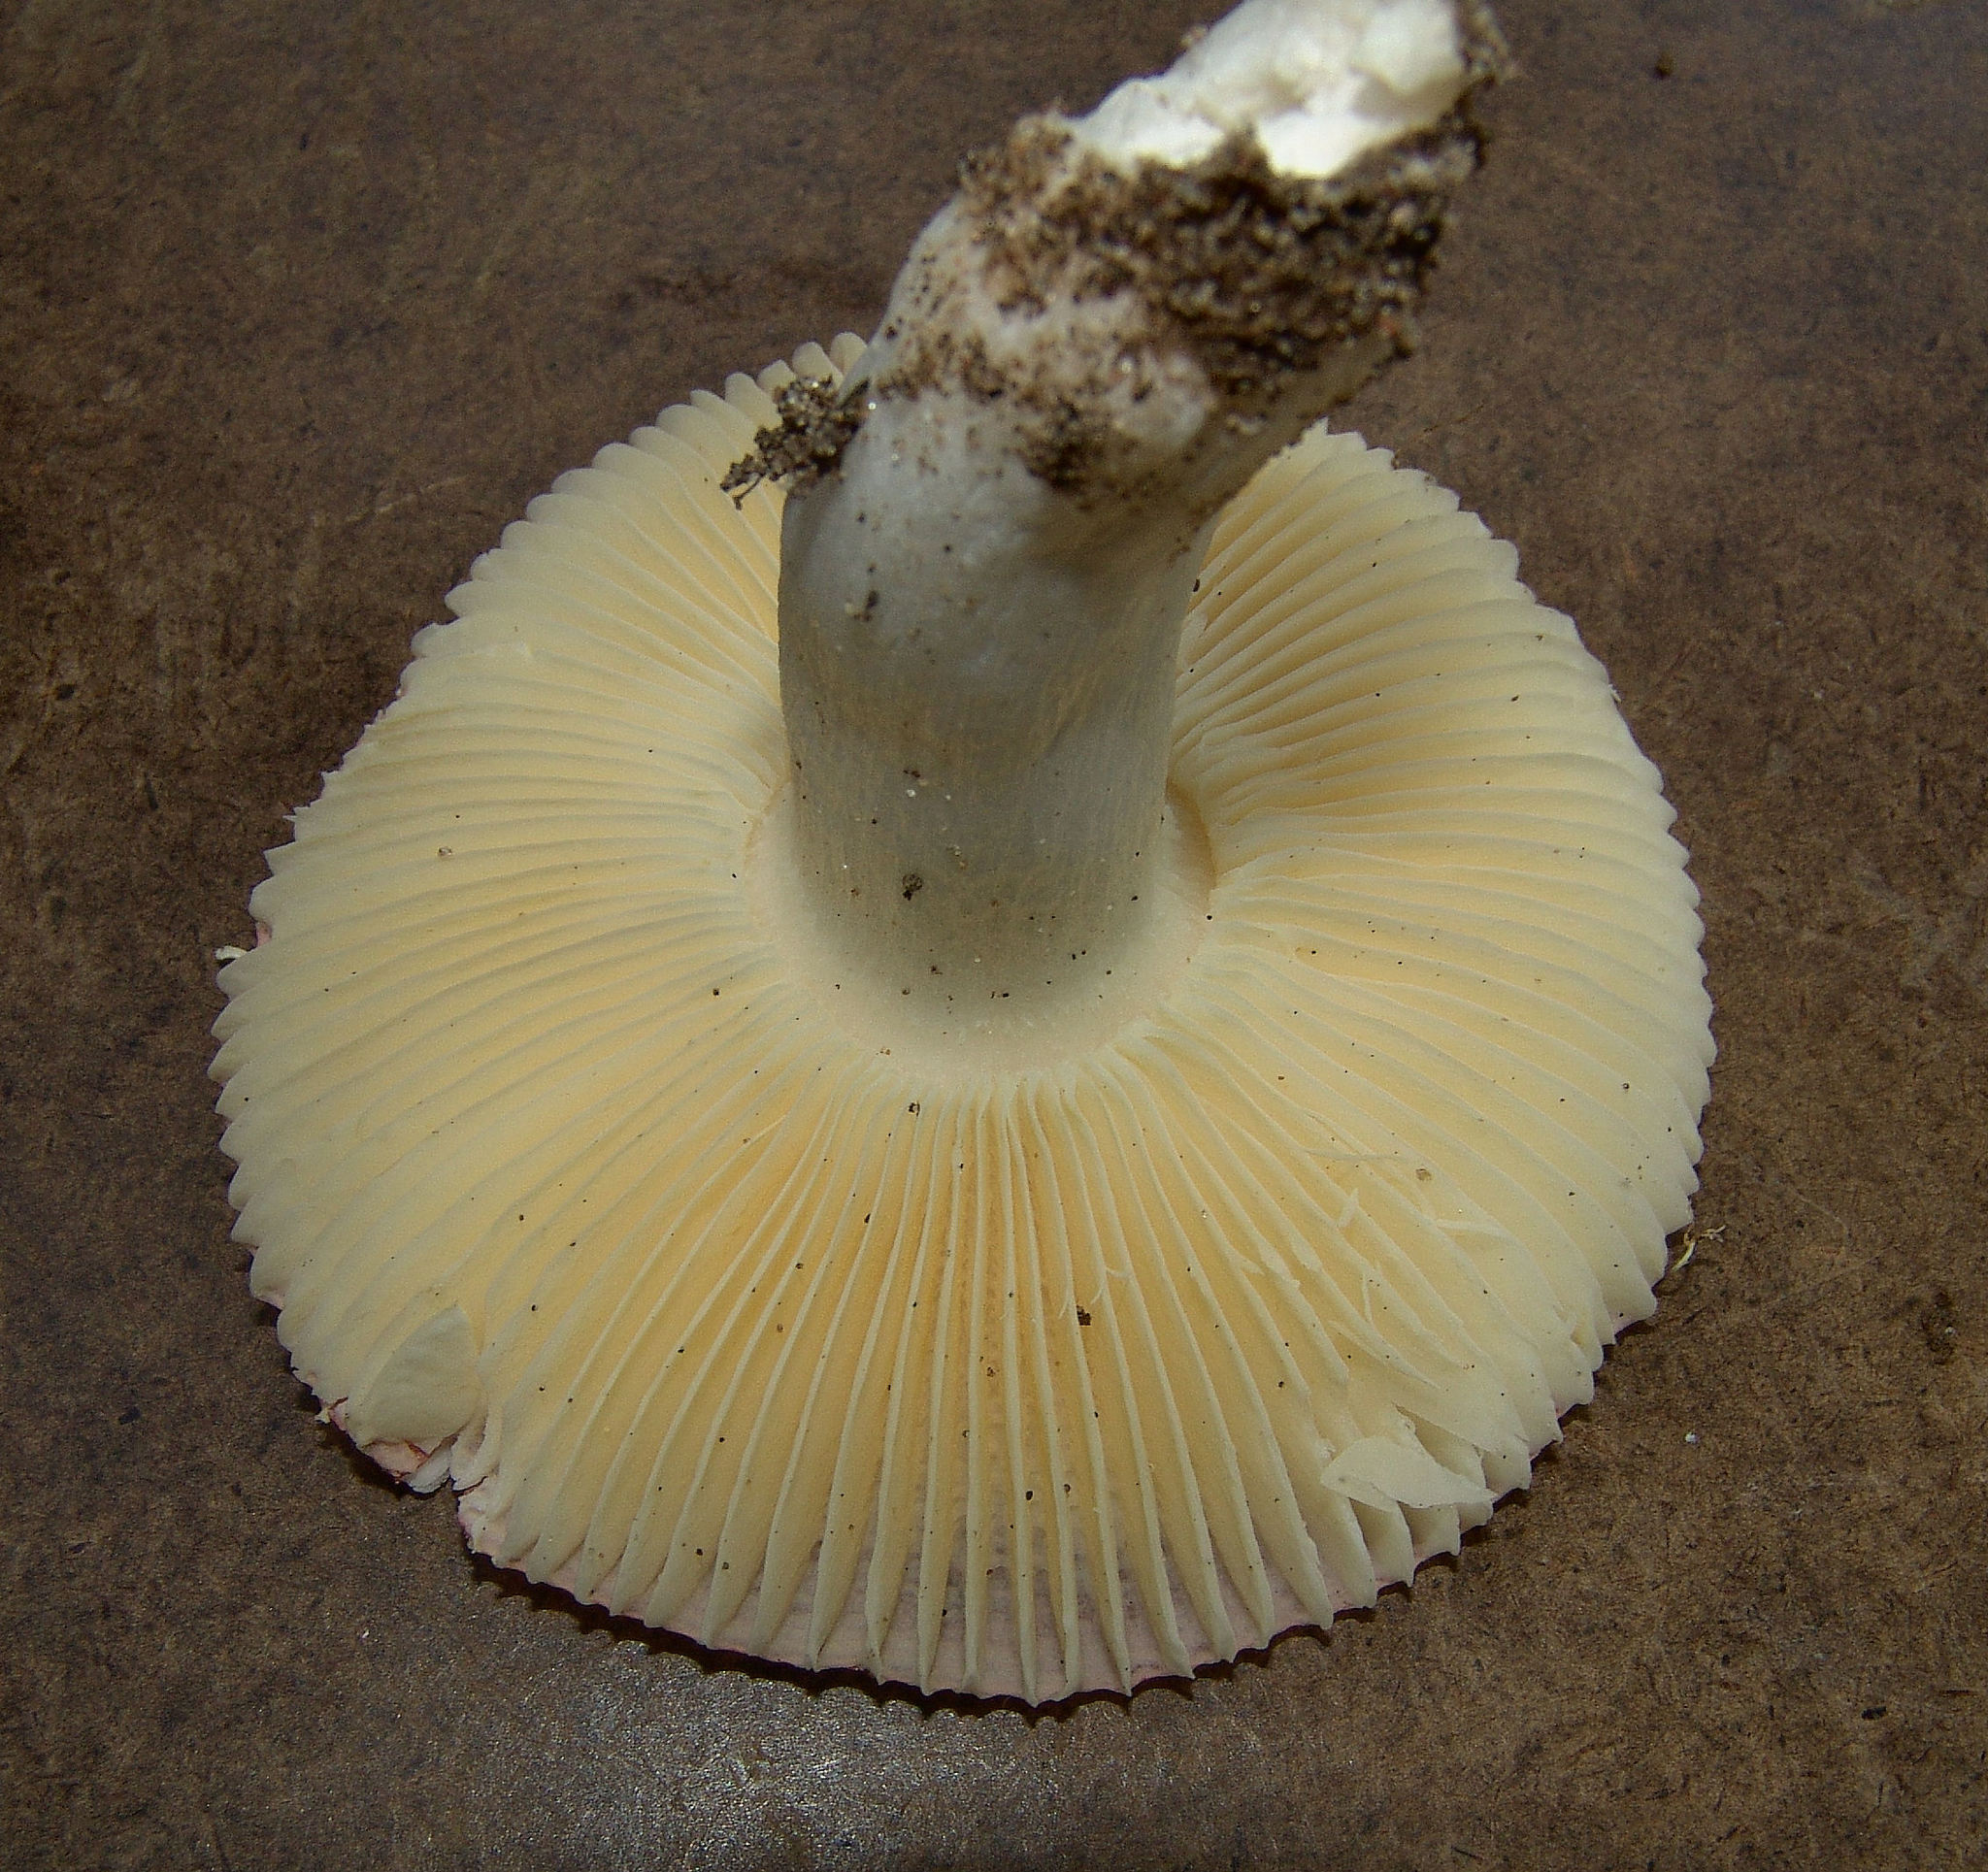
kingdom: Fungi
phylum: Basidiomycota
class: Agaricomycetes
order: Russulales
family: Russulaceae
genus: Russula
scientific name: Russula
